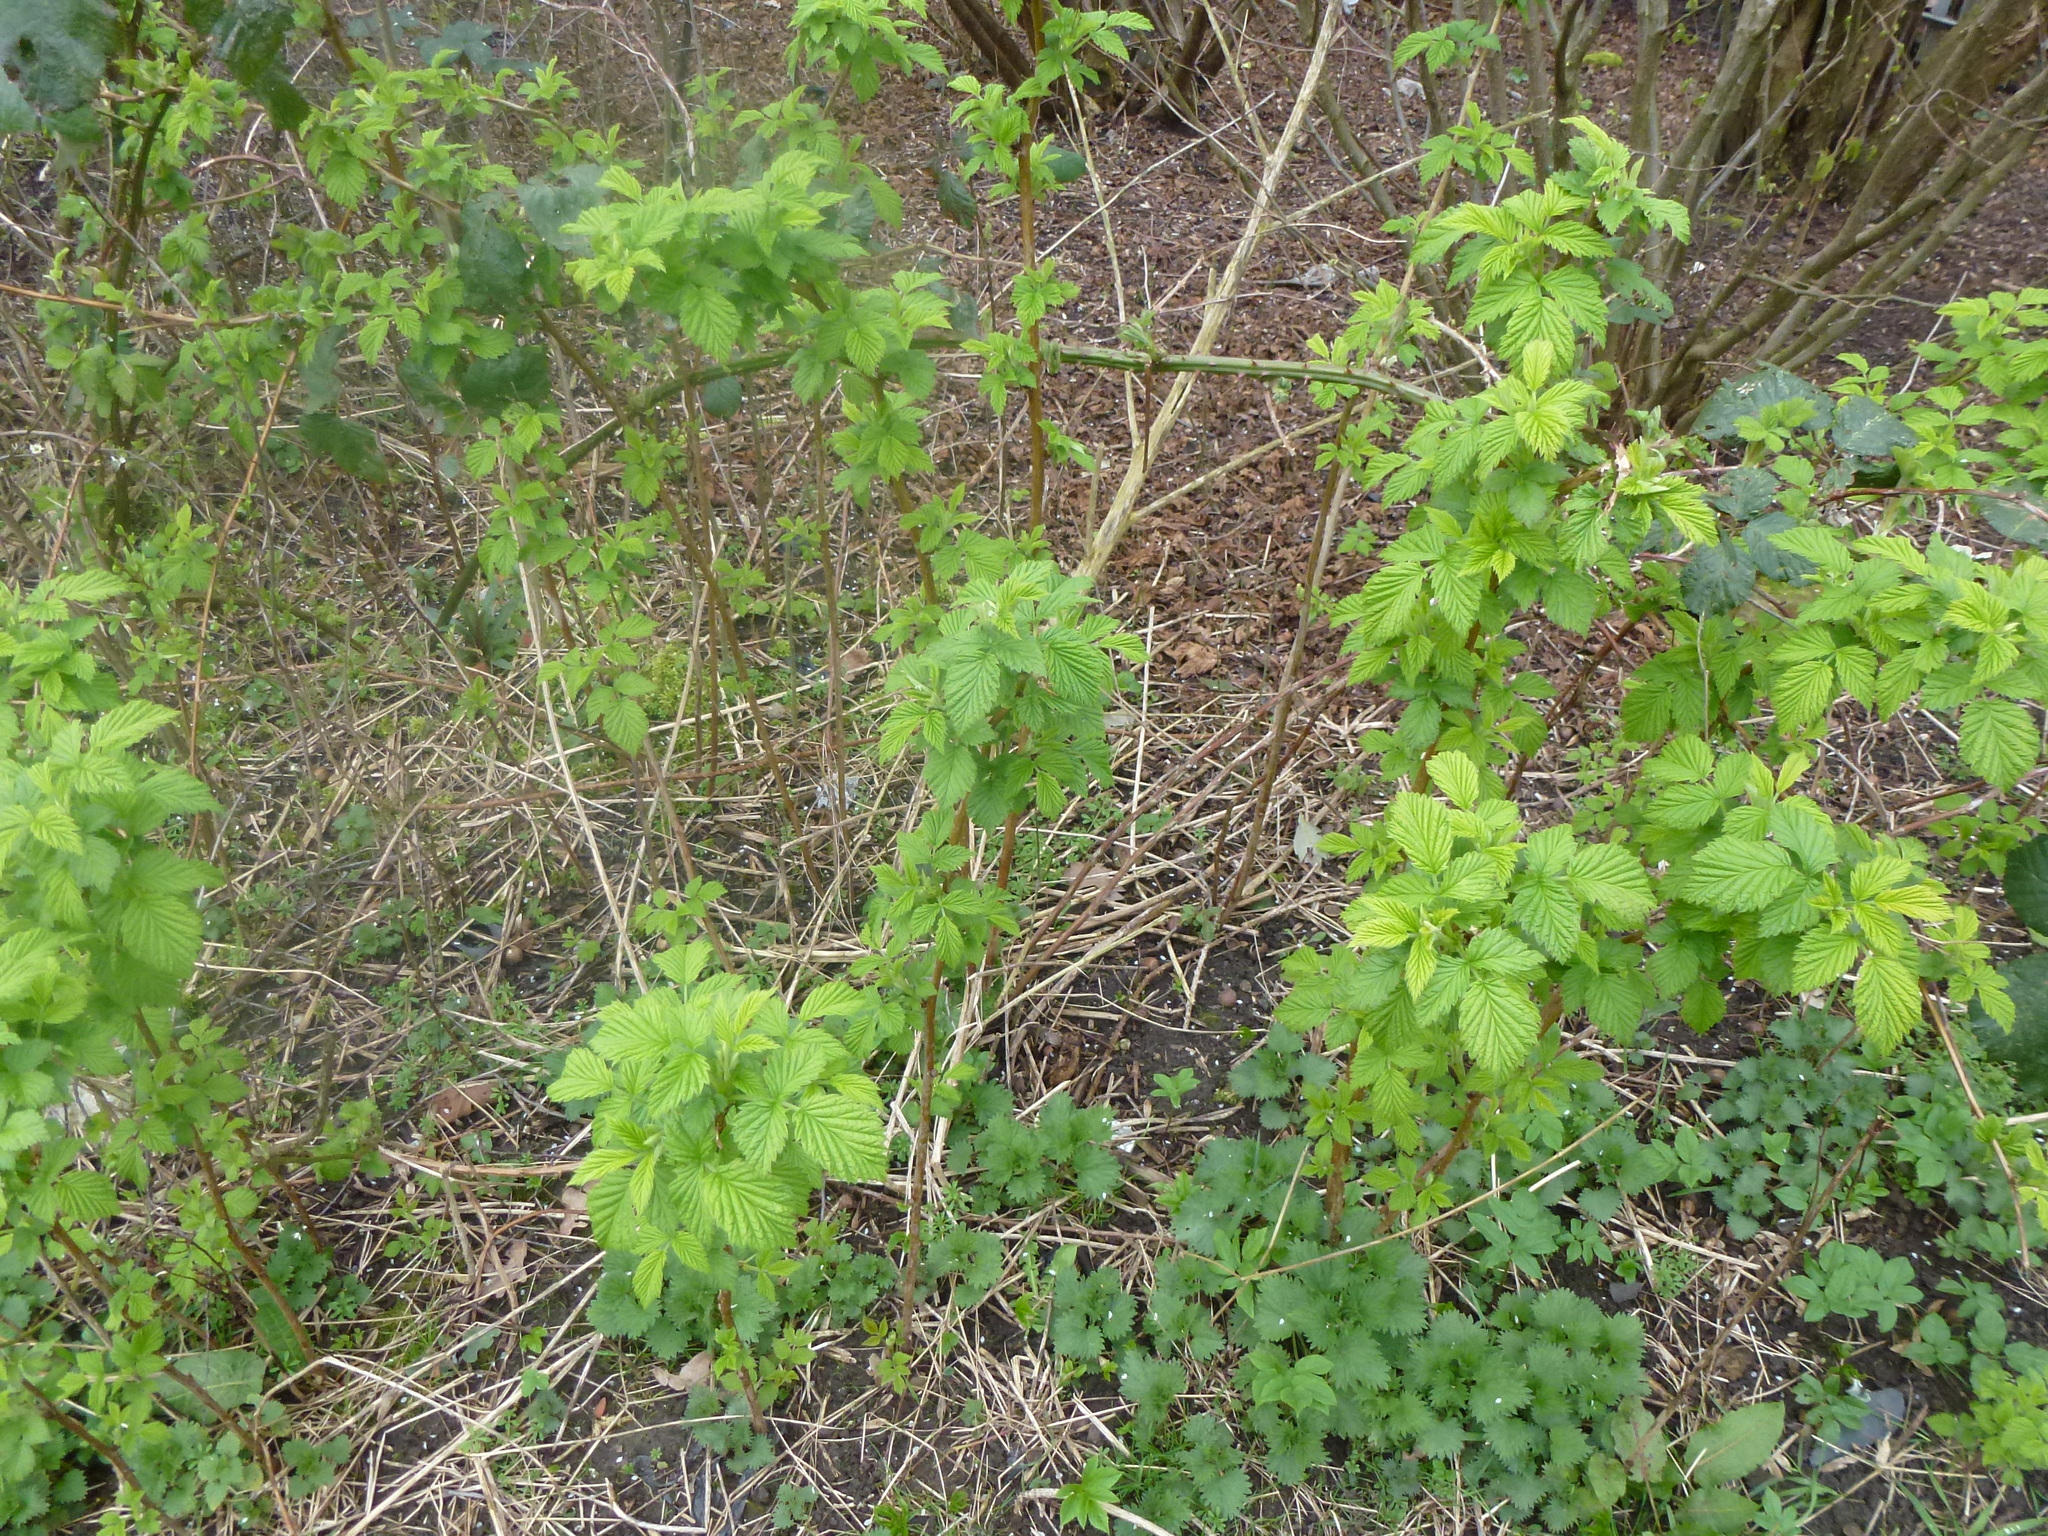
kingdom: Plantae
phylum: Tracheophyta
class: Magnoliopsida
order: Rosales
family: Rosaceae
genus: Rubus
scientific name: Rubus idaeus
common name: Raspberry
